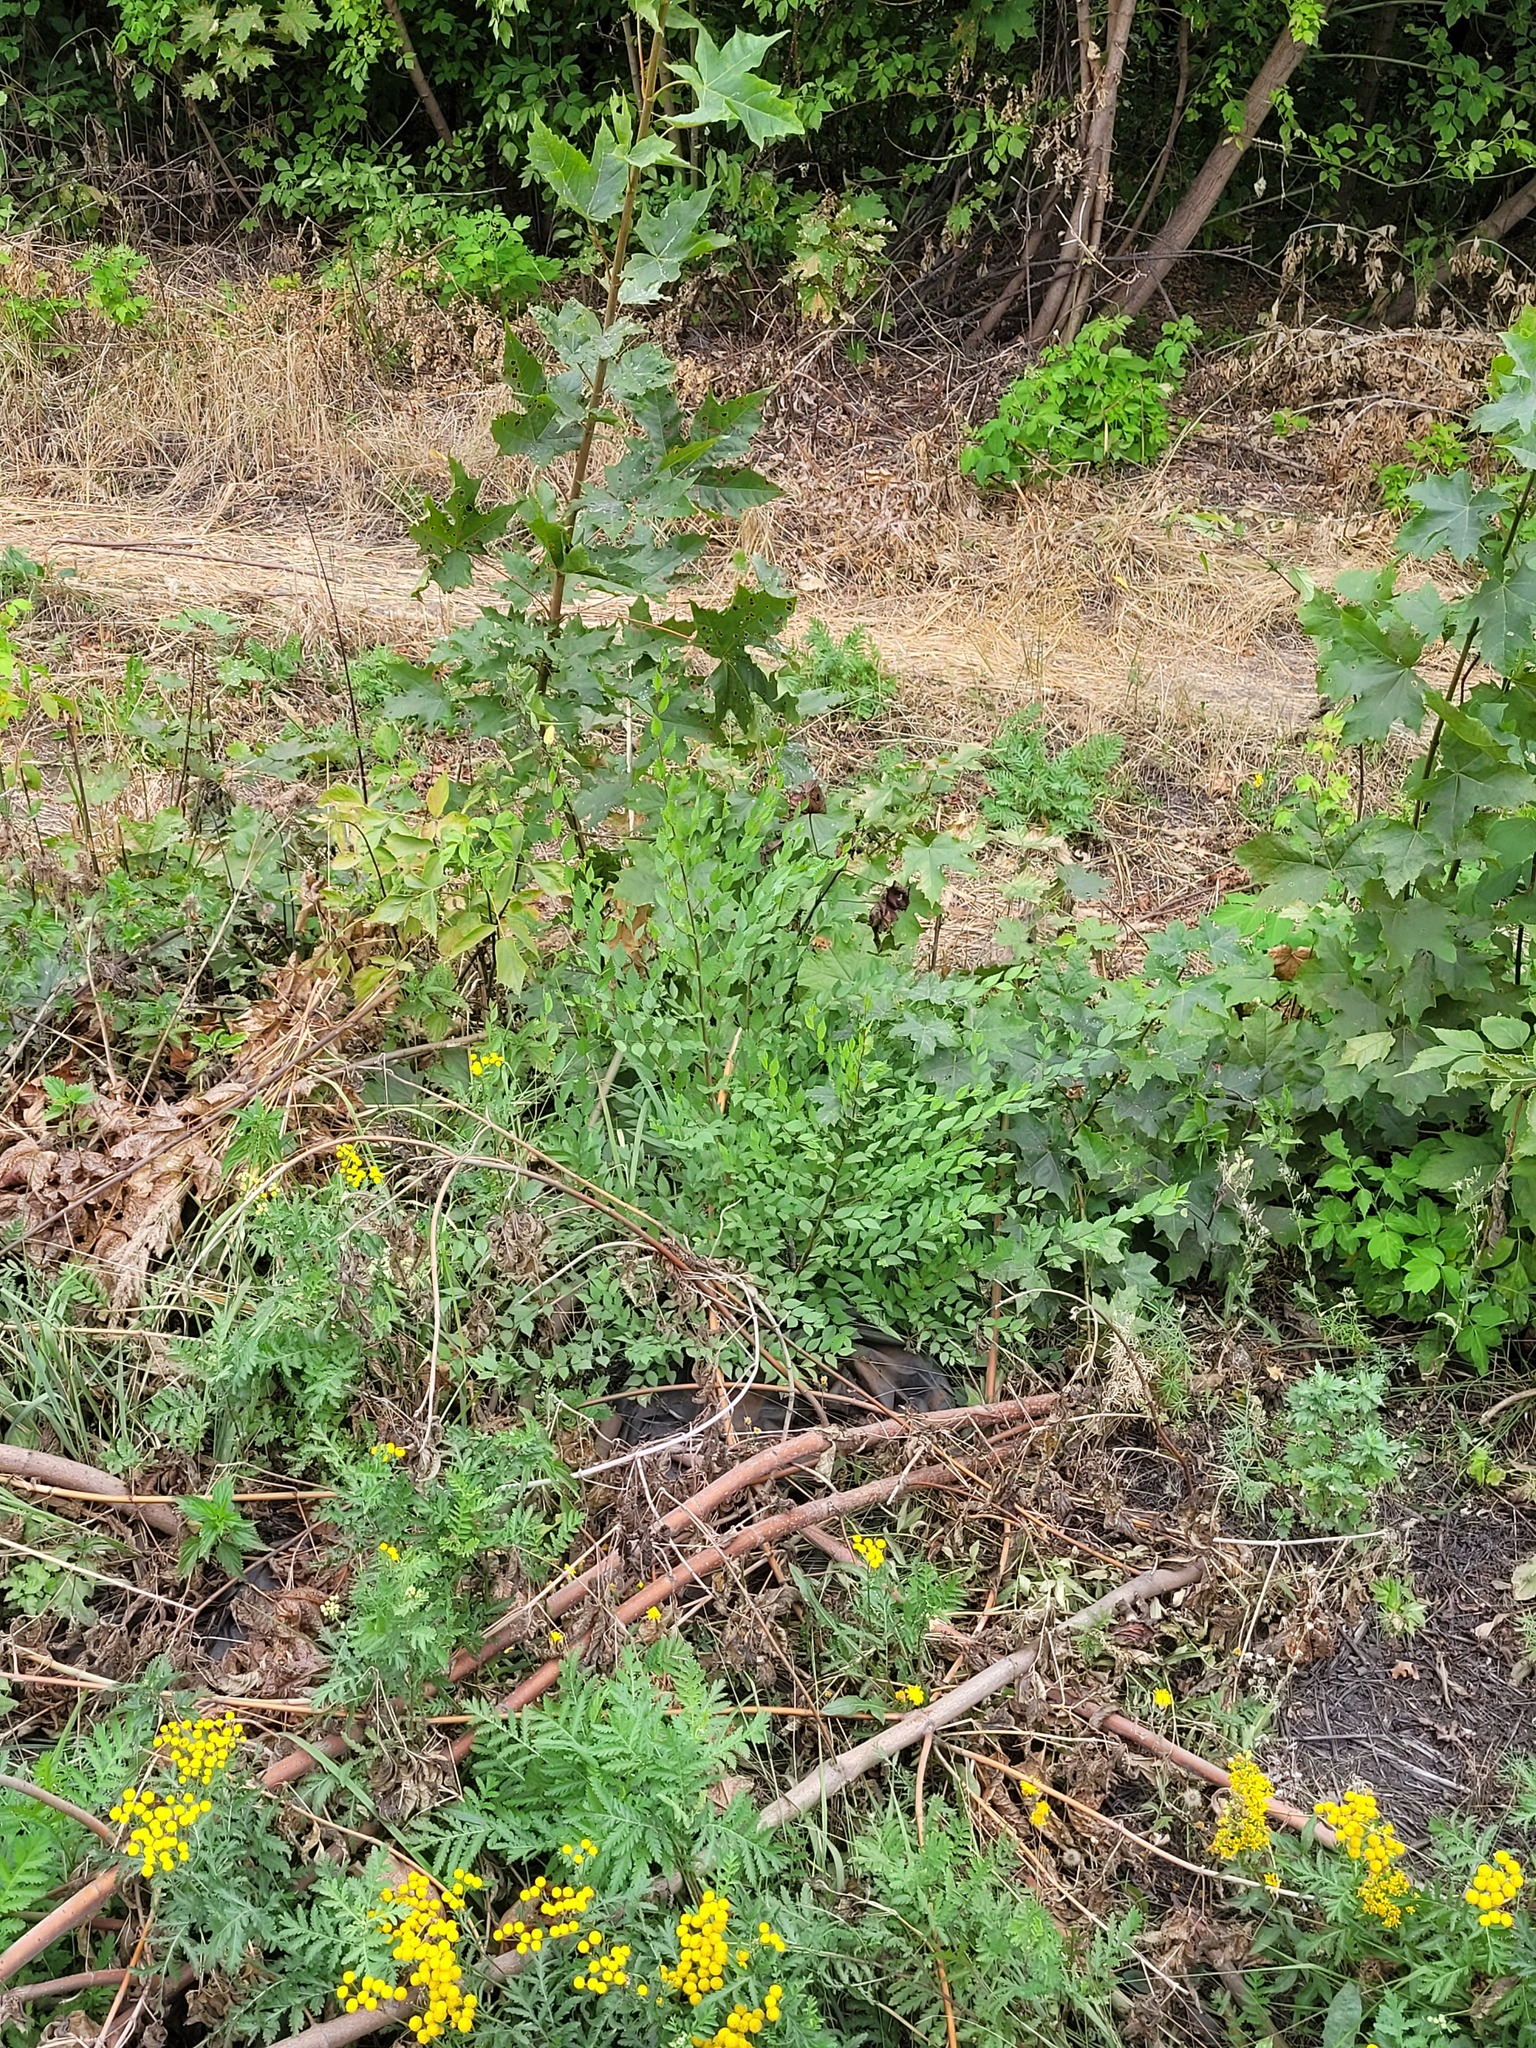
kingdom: Plantae
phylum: Tracheophyta
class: Magnoliopsida
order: Rosales
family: Ulmaceae
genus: Ulmus
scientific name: Ulmus pumila
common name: Siberian elm
